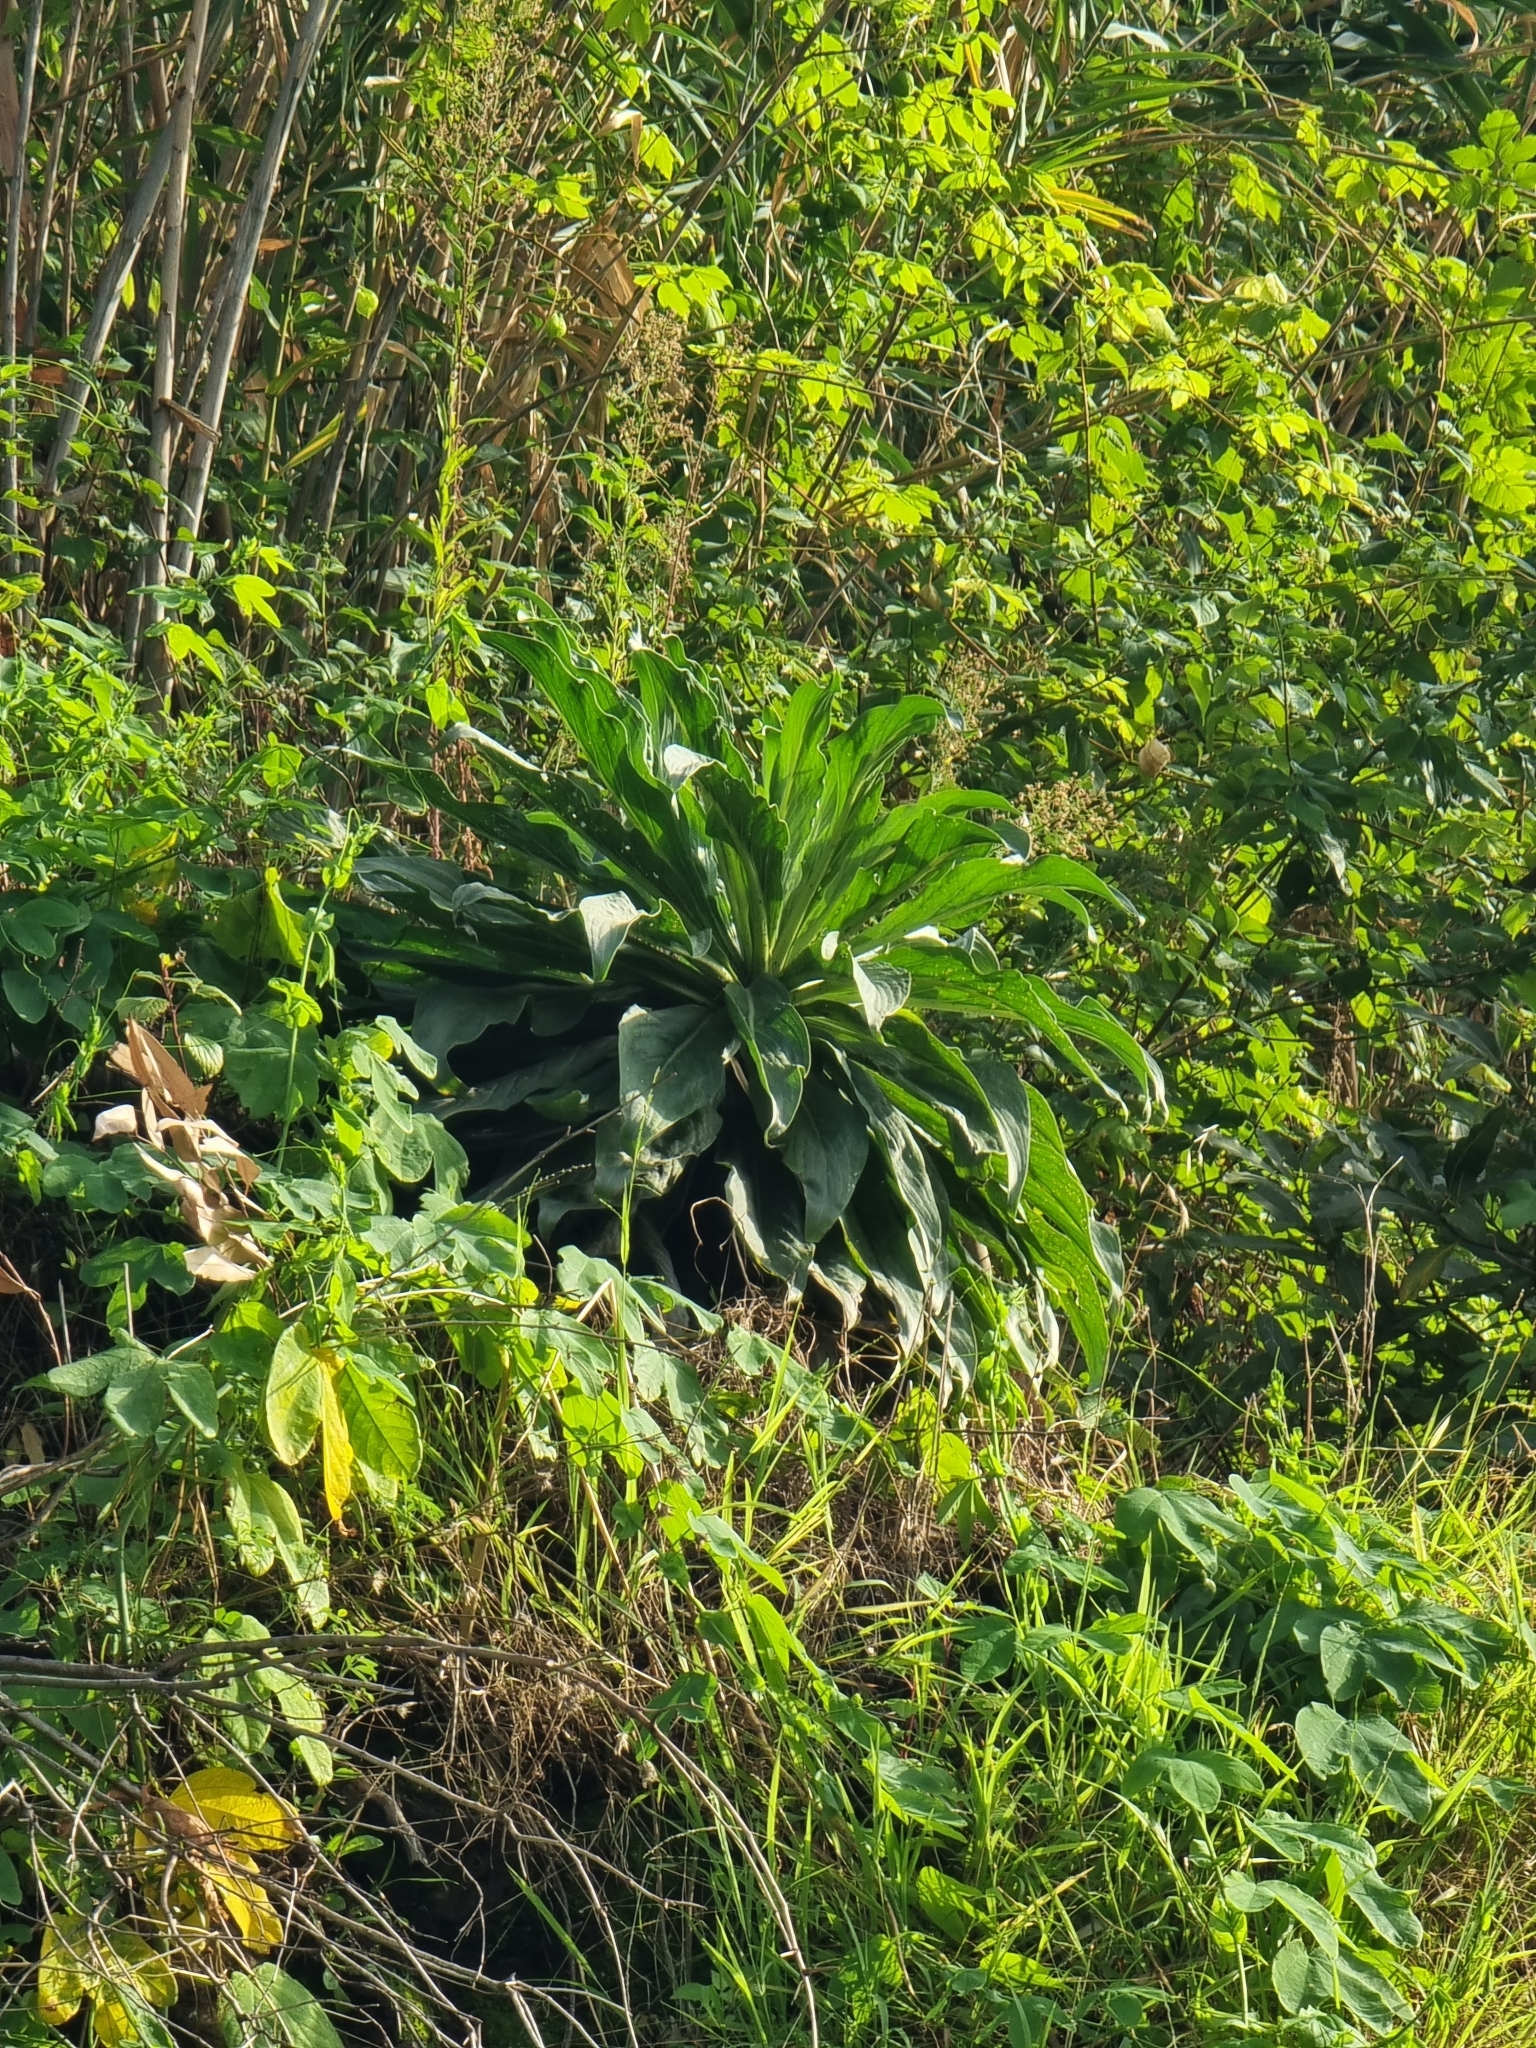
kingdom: Plantae
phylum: Tracheophyta
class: Magnoliopsida
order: Boraginales
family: Boraginaceae
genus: Echium
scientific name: Echium nervosum
